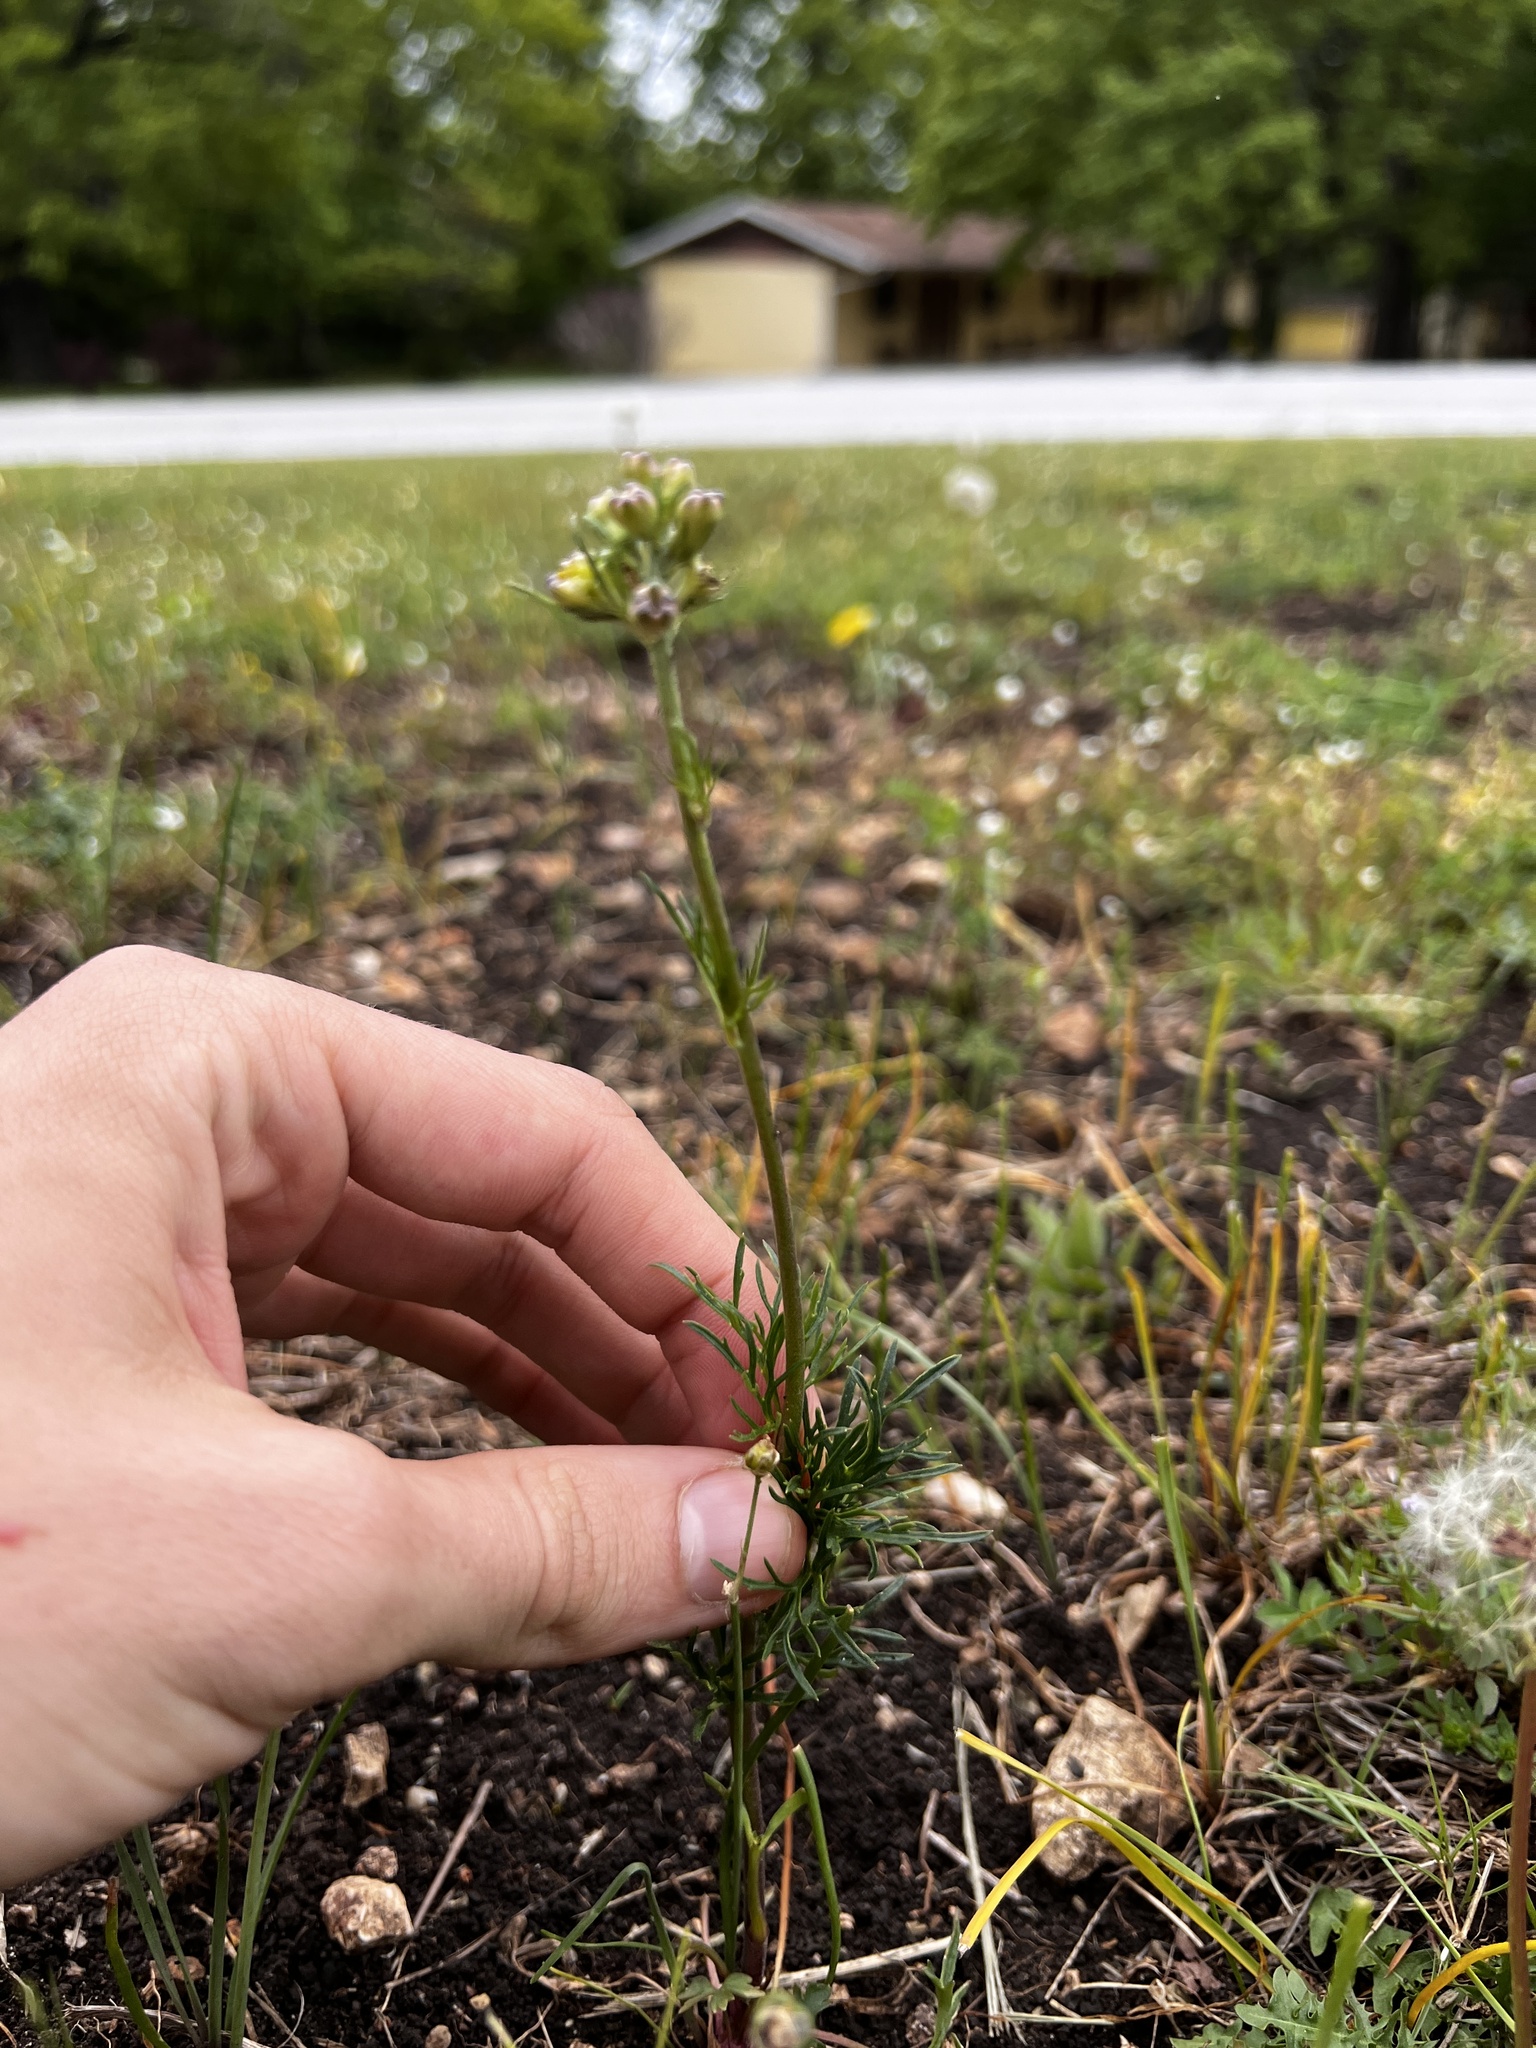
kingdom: Plantae
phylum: Tracheophyta
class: Magnoliopsida
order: Ranunculales
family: Ranunculaceae
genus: Delphinium
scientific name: Delphinium carolinianum
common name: Carolina larkspur
